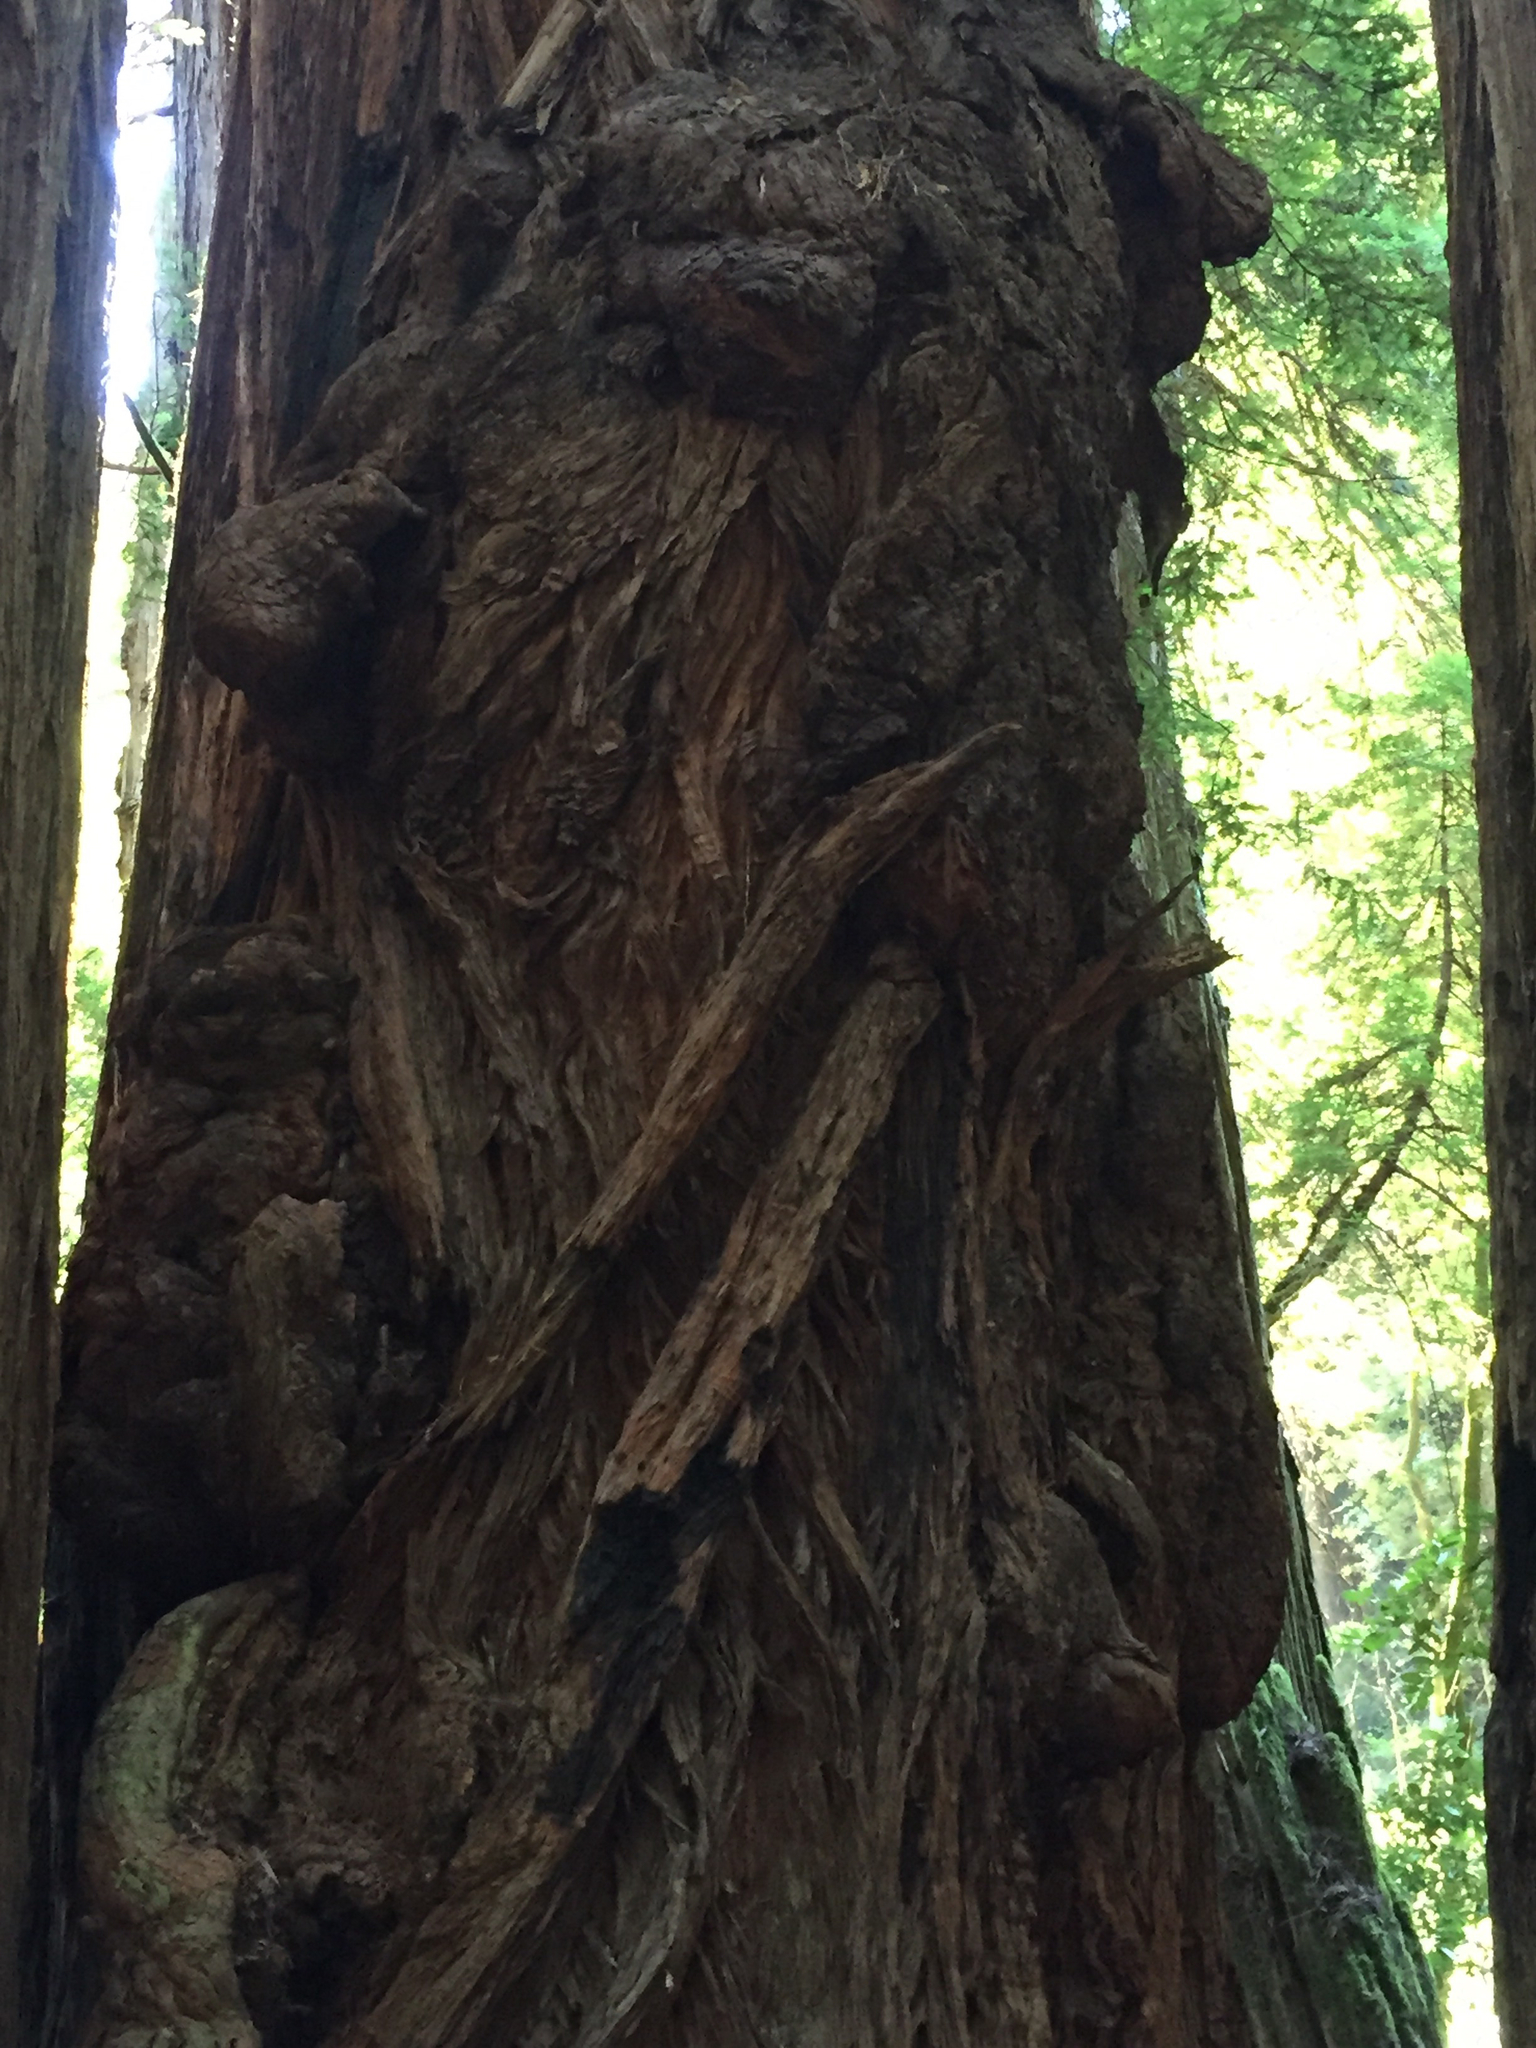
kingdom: Plantae
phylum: Tracheophyta
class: Pinopsida
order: Pinales
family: Cupressaceae
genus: Sequoia
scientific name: Sequoia sempervirens
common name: Coast redwood
